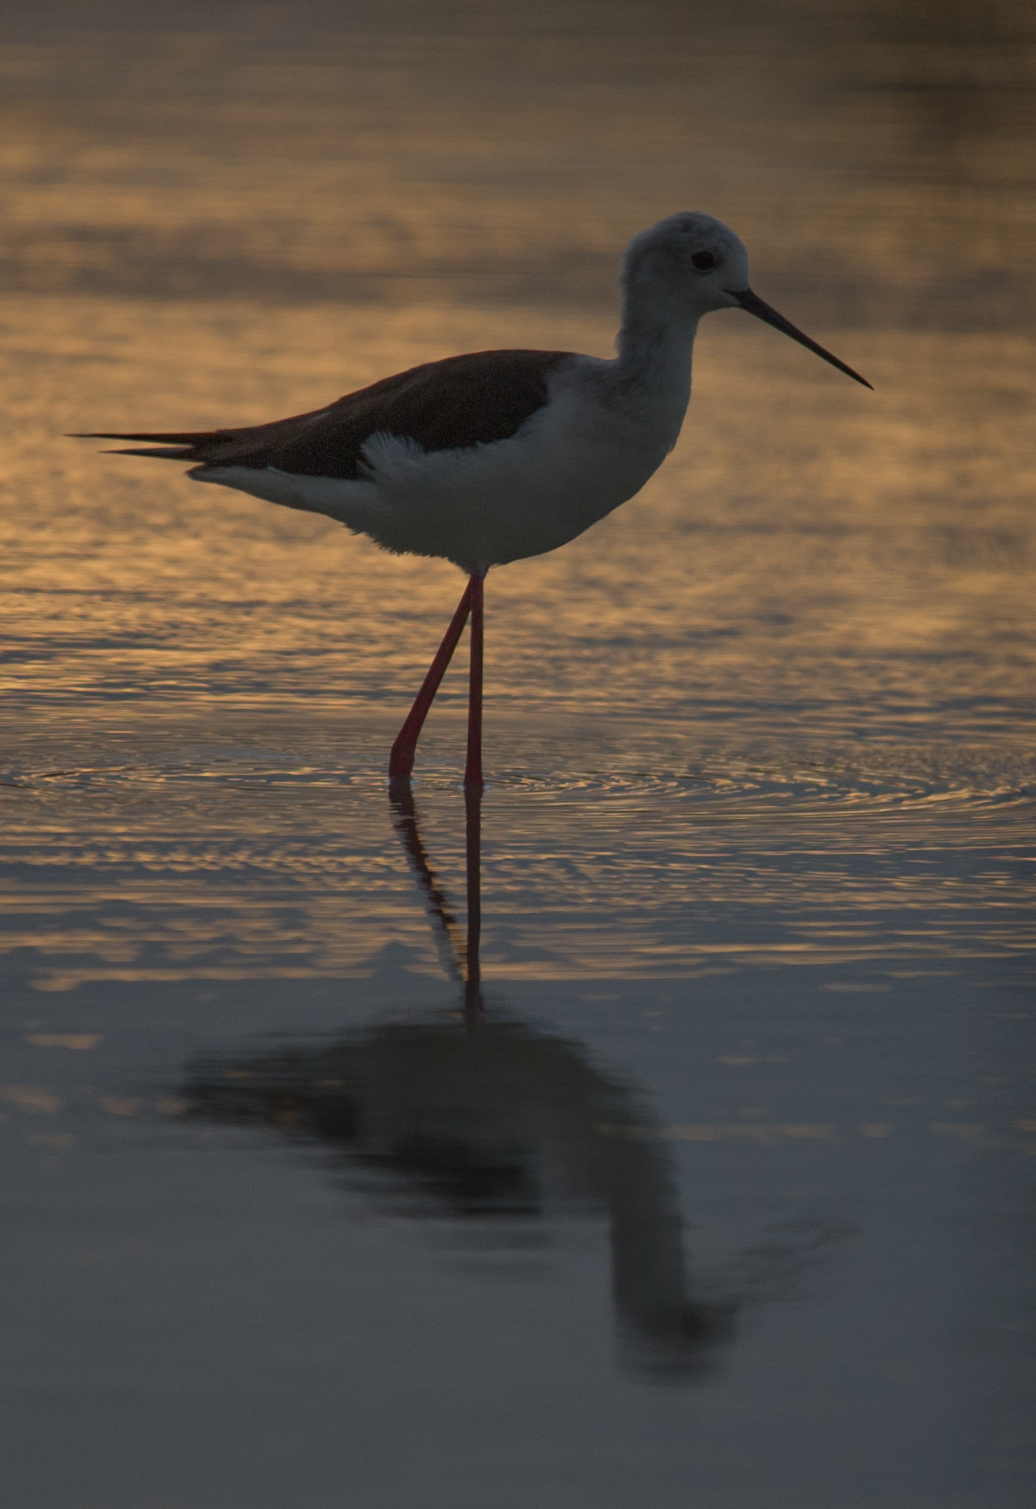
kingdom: Animalia
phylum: Chordata
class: Aves
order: Charadriiformes
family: Recurvirostridae
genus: Himantopus
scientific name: Himantopus himantopus
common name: Black-winged stilt
